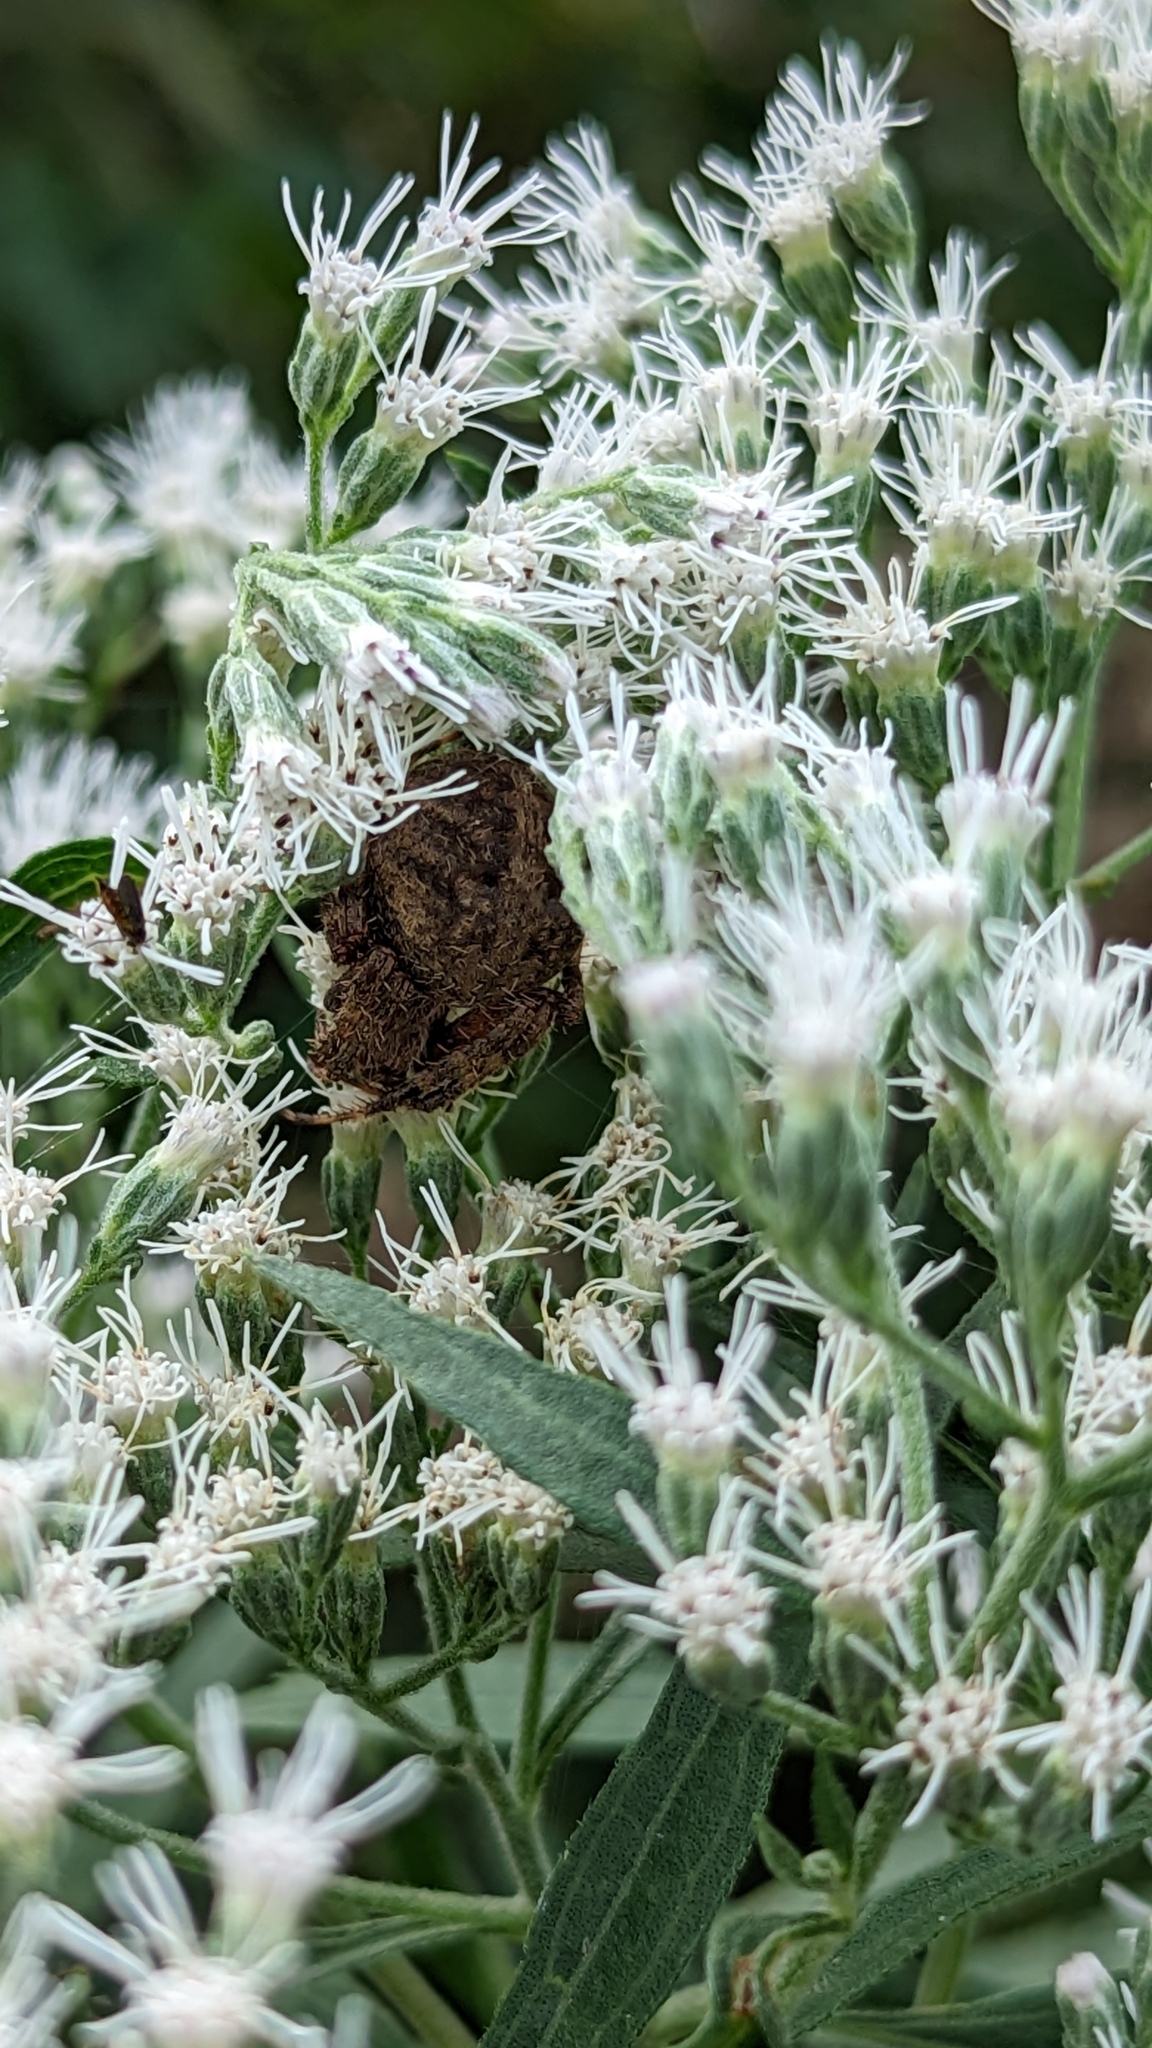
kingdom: Animalia
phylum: Arthropoda
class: Arachnida
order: Araneae
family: Araneidae
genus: Neoscona
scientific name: Neoscona crucifera
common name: Spotted orbweaver
